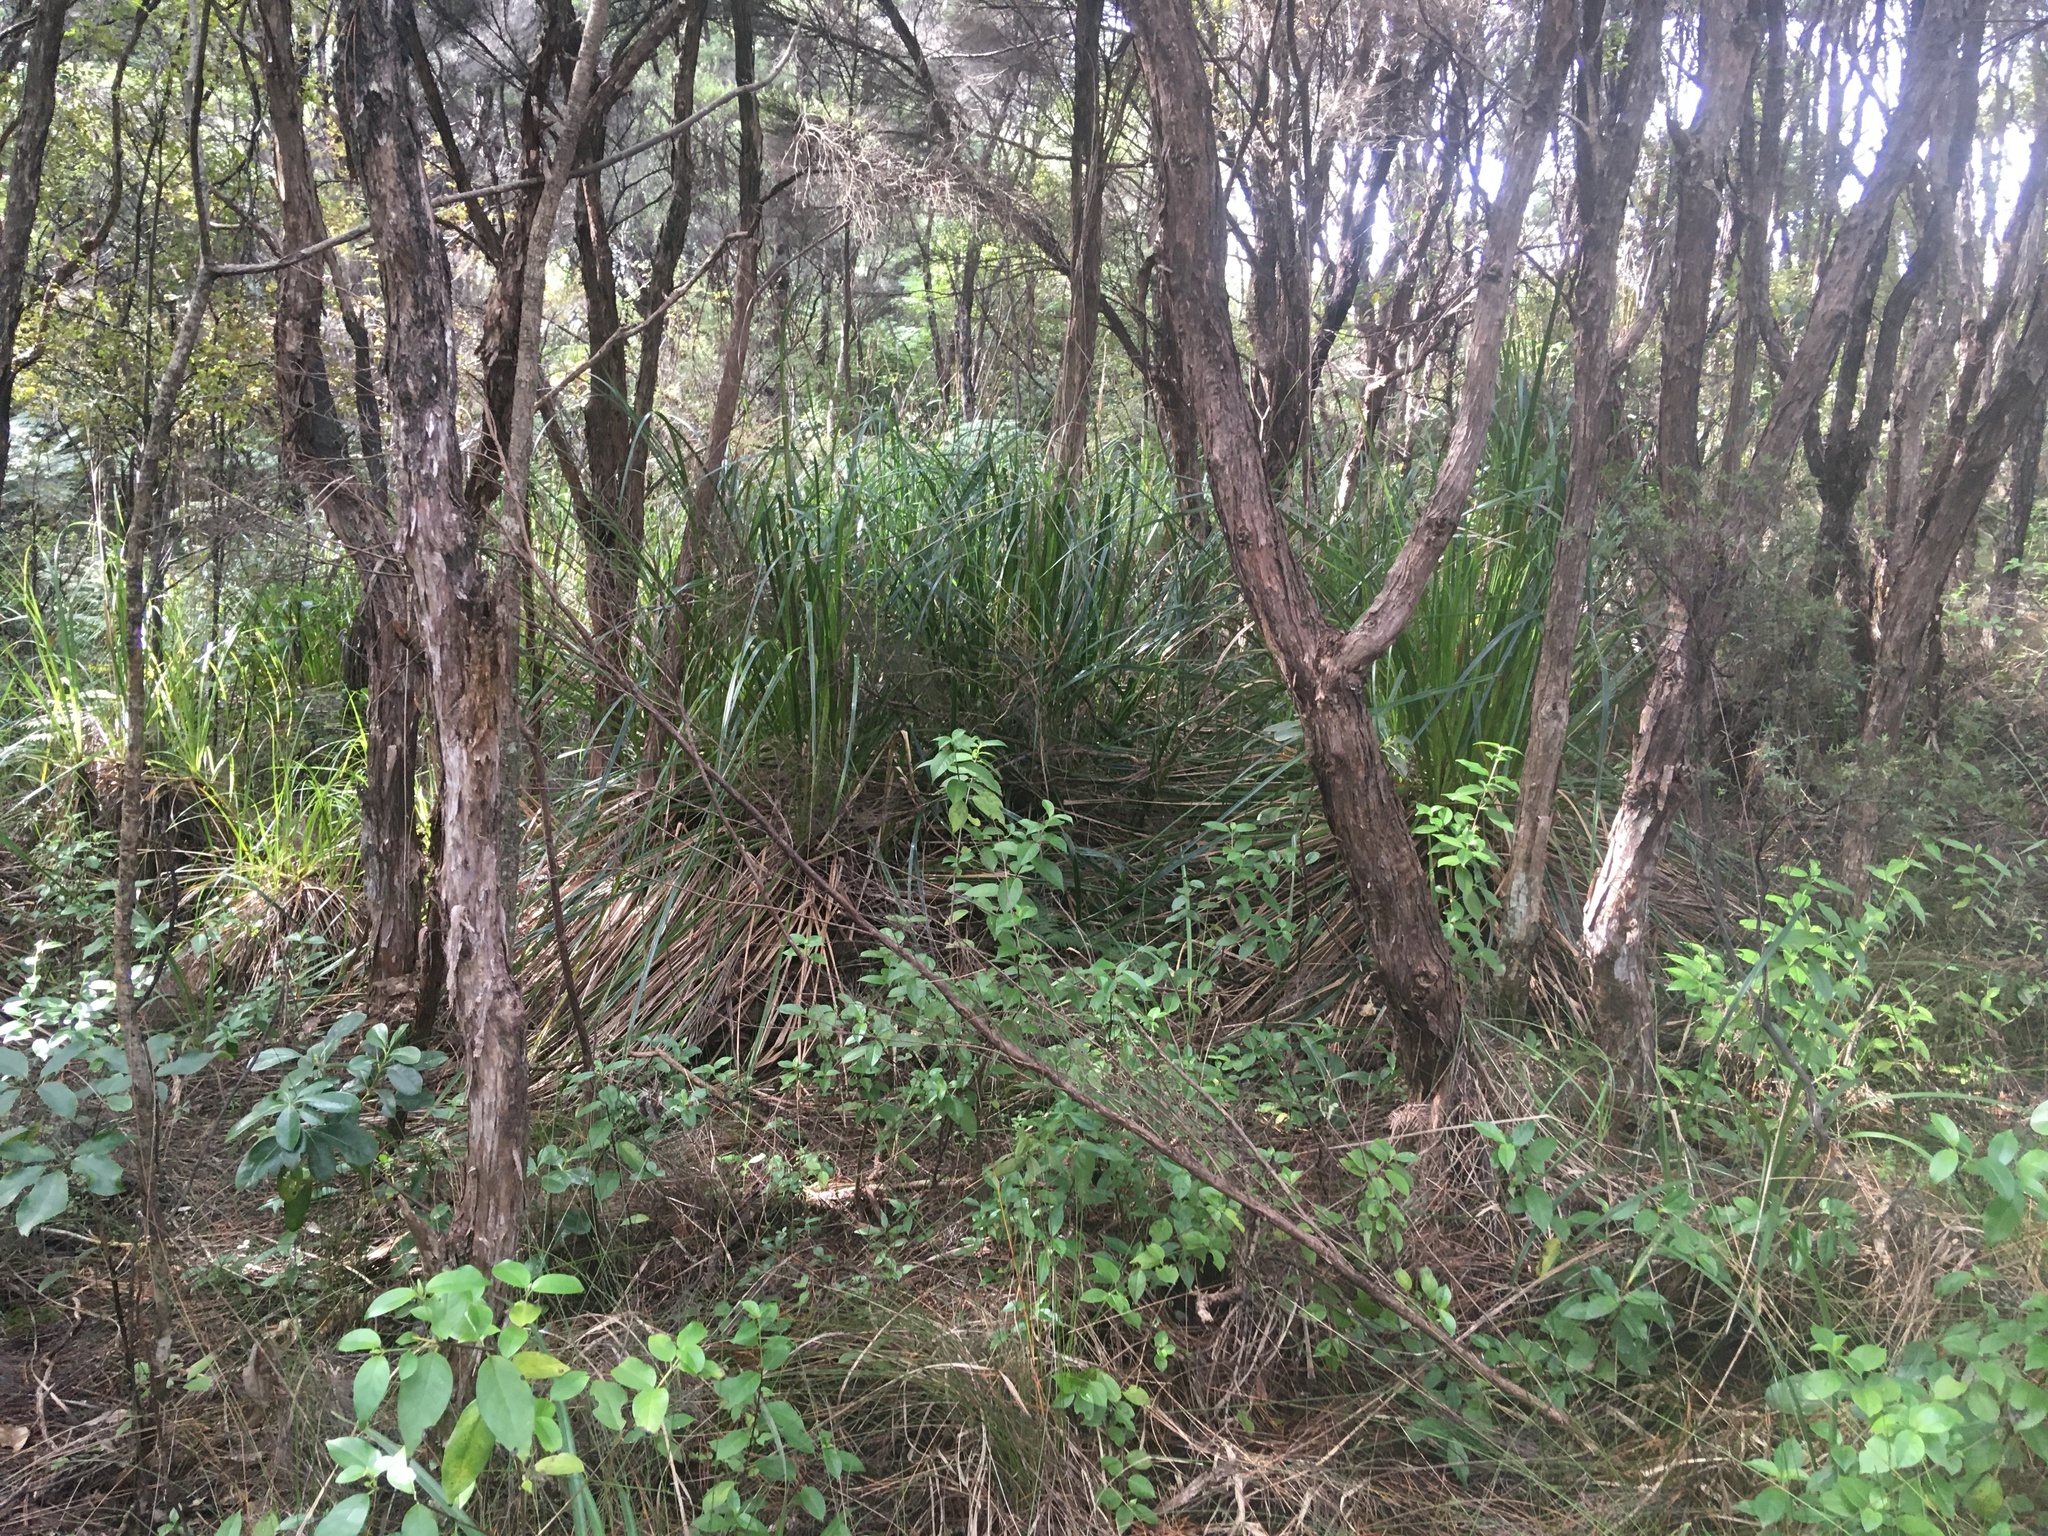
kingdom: Plantae
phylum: Tracheophyta
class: Magnoliopsida
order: Gentianales
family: Loganiaceae
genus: Geniostoma
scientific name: Geniostoma ligustrifolium
